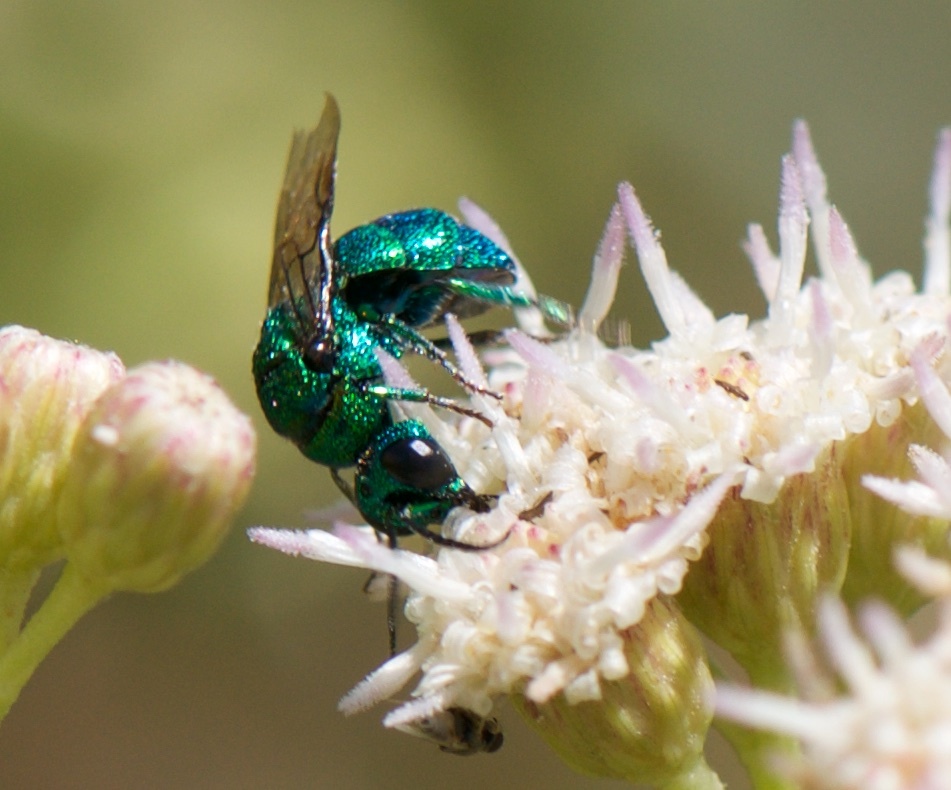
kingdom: Animalia
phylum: Arthropoda
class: Insecta
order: Hymenoptera
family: Chrysididae
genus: Holopyga
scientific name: Holopyga
